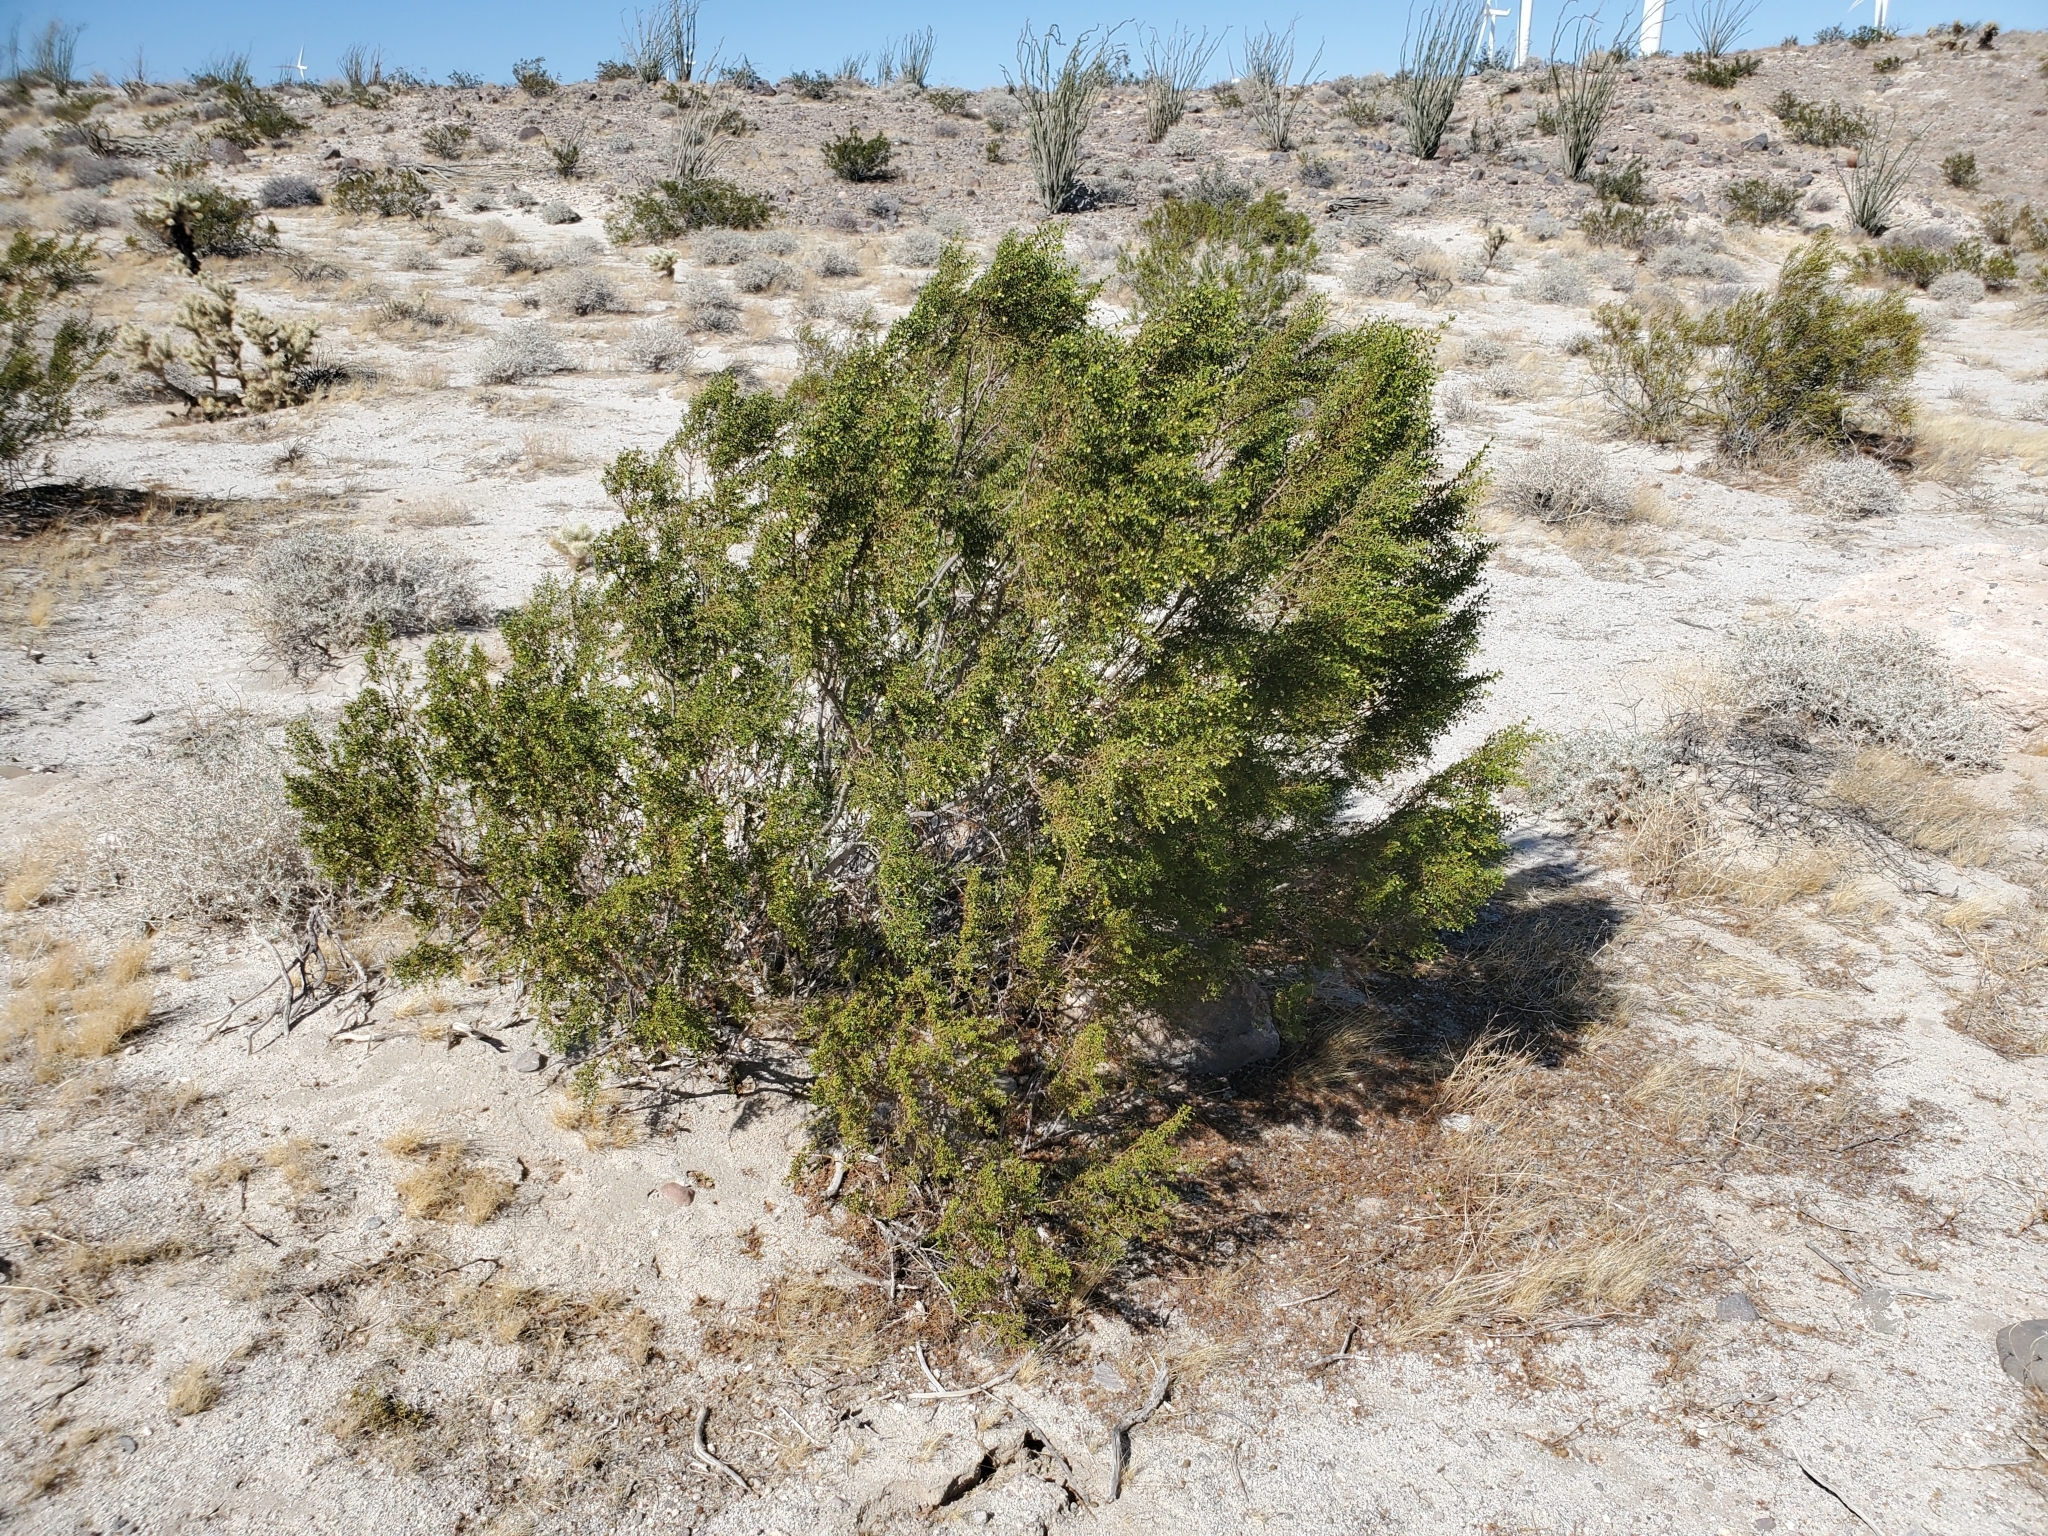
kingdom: Plantae
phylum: Tracheophyta
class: Magnoliopsida
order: Zygophyllales
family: Zygophyllaceae
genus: Larrea
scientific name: Larrea tridentata
